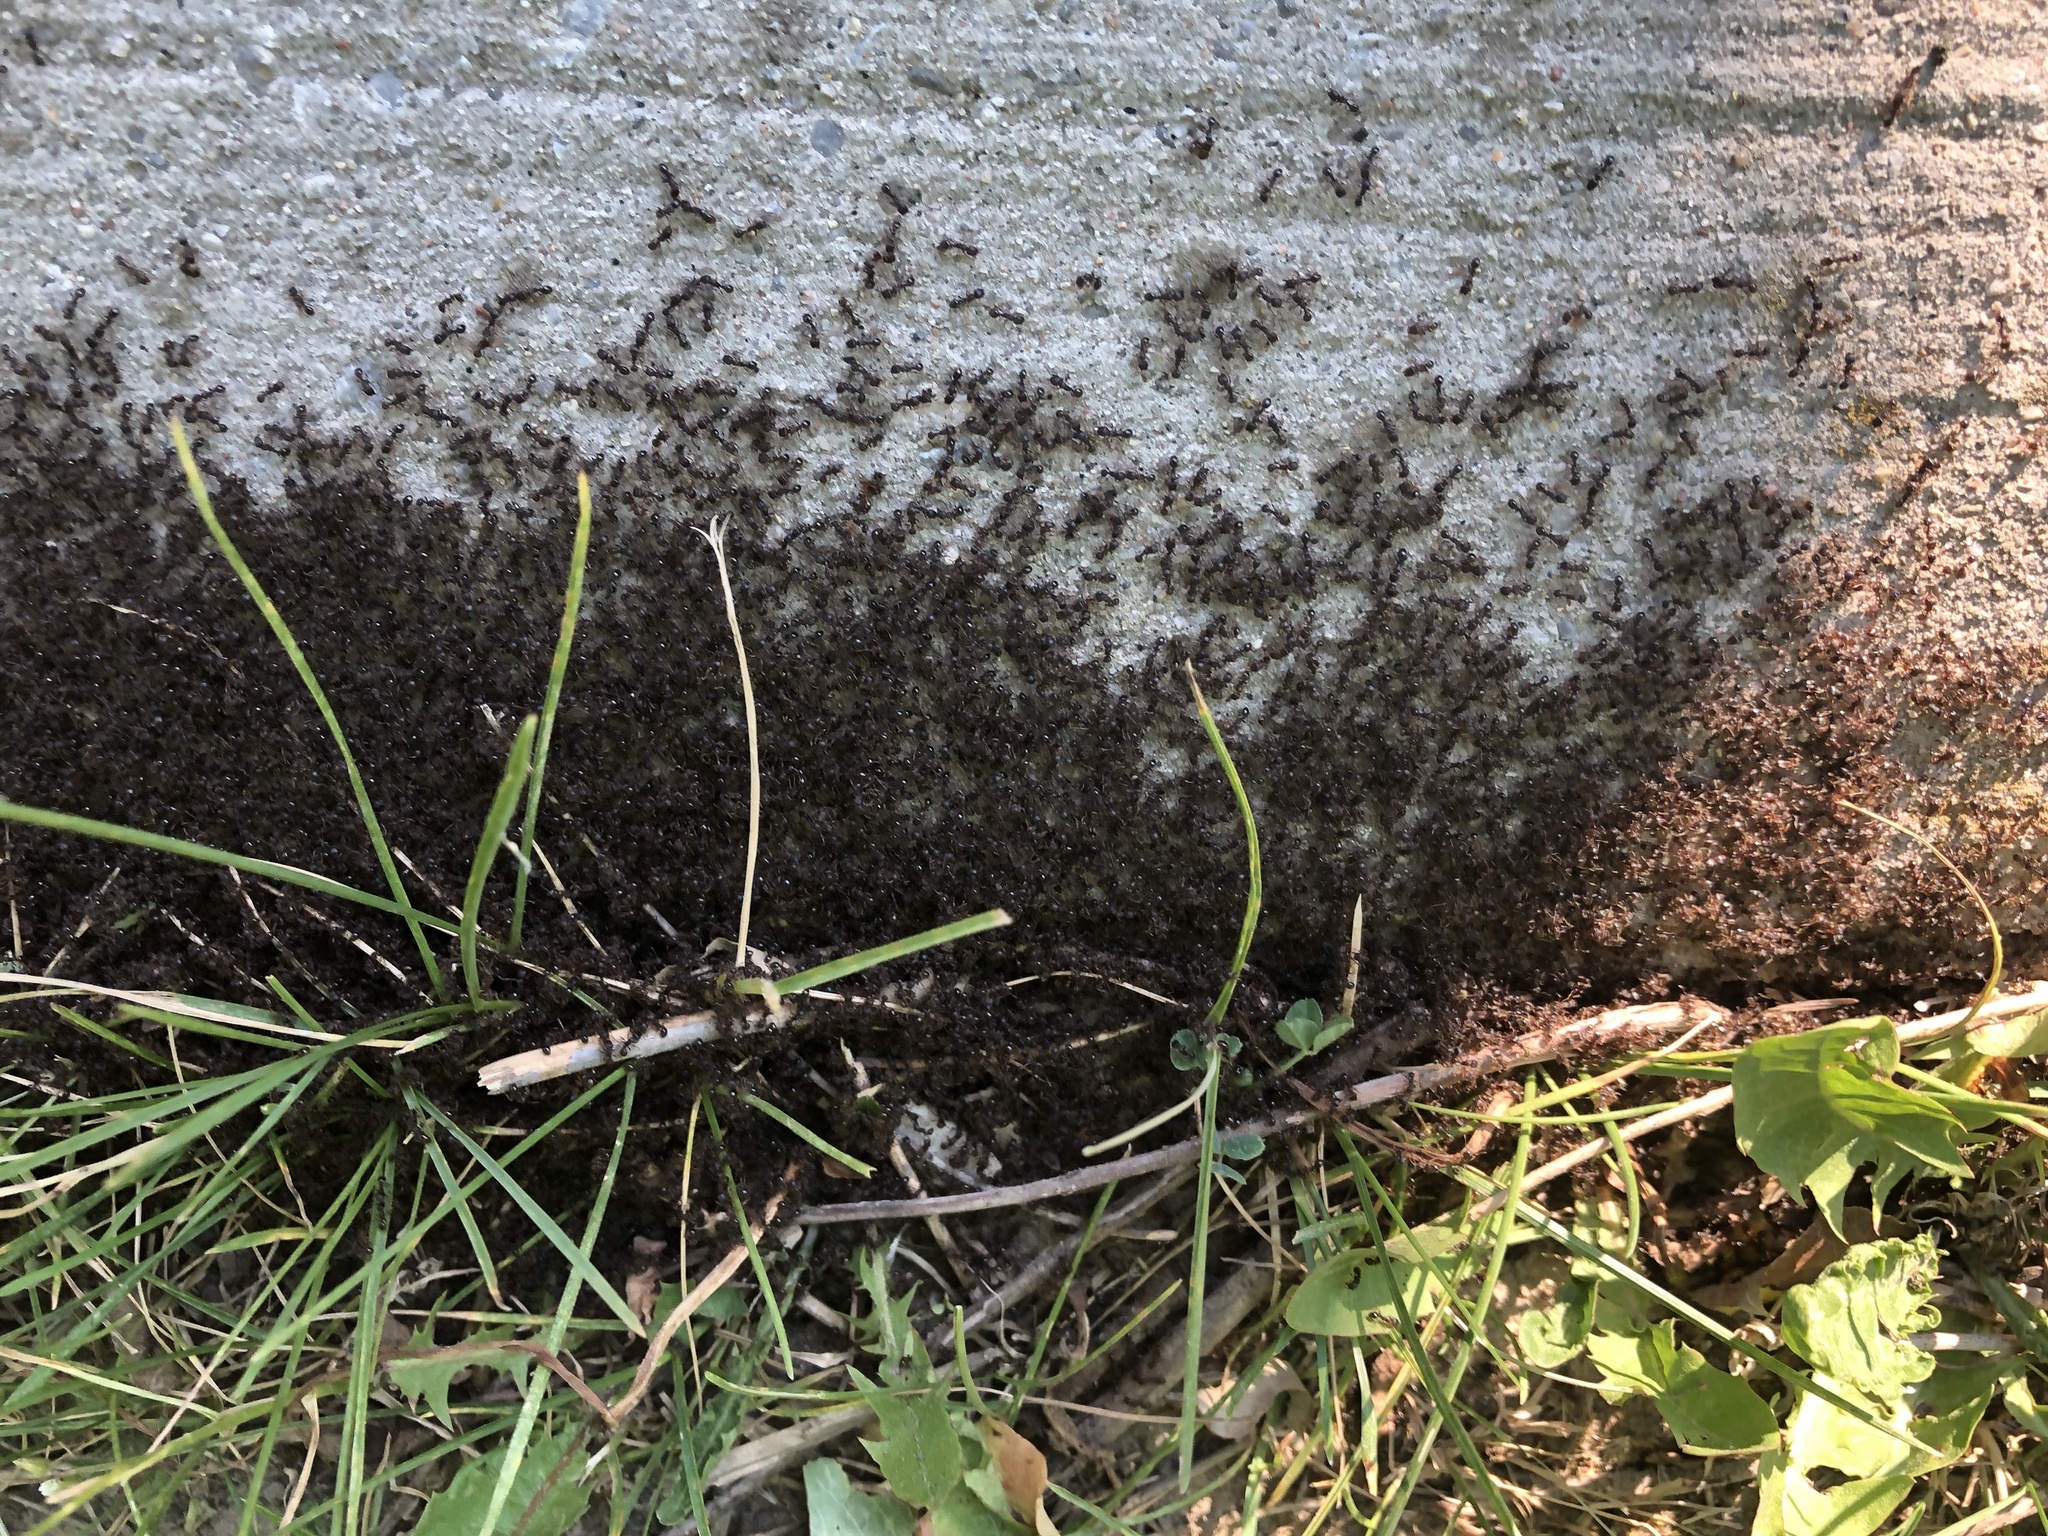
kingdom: Animalia
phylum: Arthropoda
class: Insecta
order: Hymenoptera
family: Formicidae
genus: Tetramorium
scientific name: Tetramorium immigrans
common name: Pavement ant
